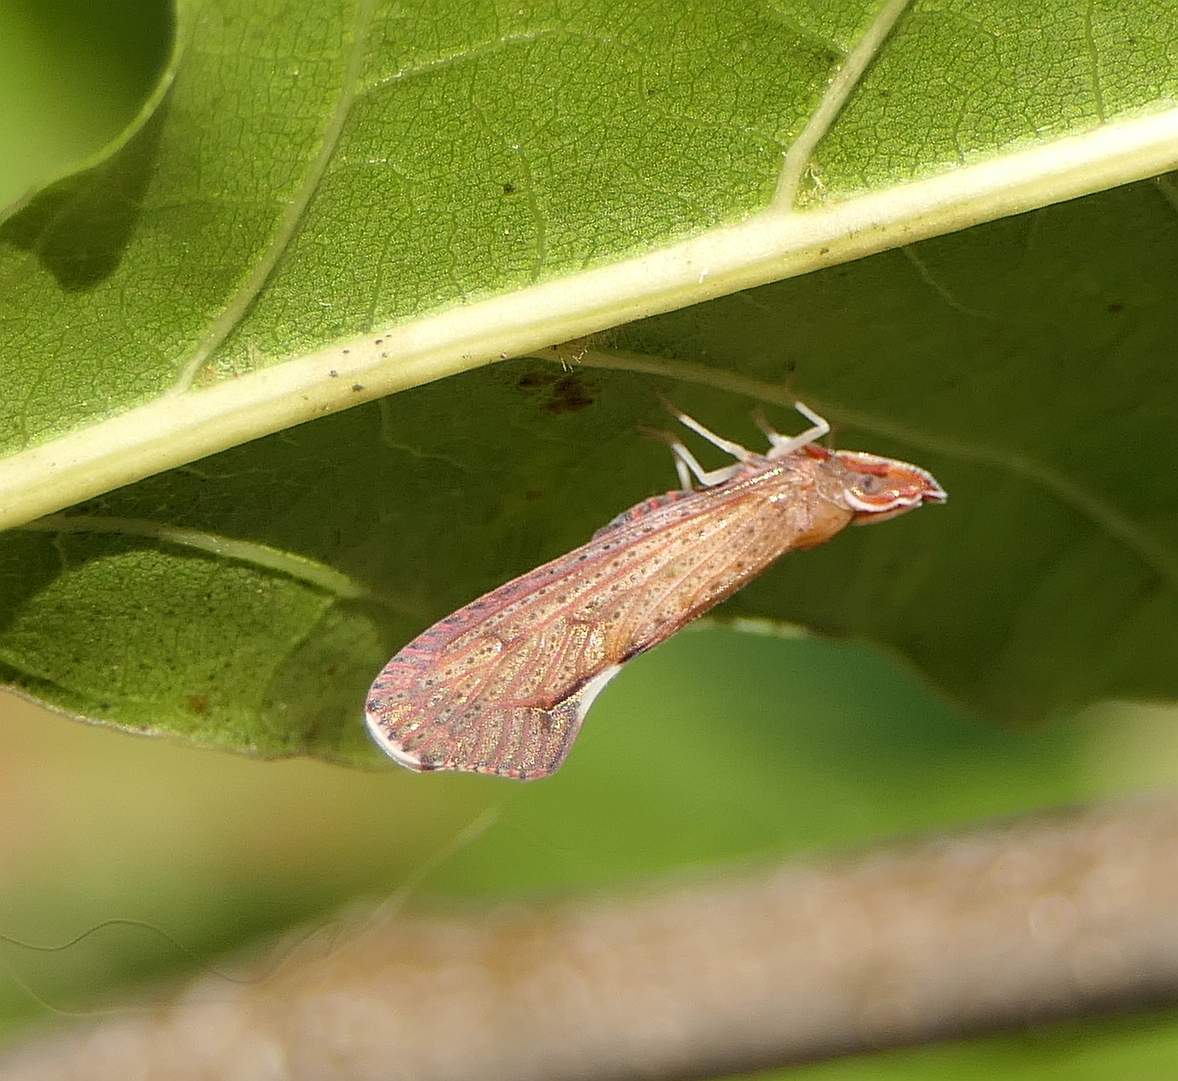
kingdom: Animalia
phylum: Arthropoda
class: Insecta
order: Hemiptera
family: Derbidae
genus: Apache
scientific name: Apache degeeri
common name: Red-fanned planthopper
